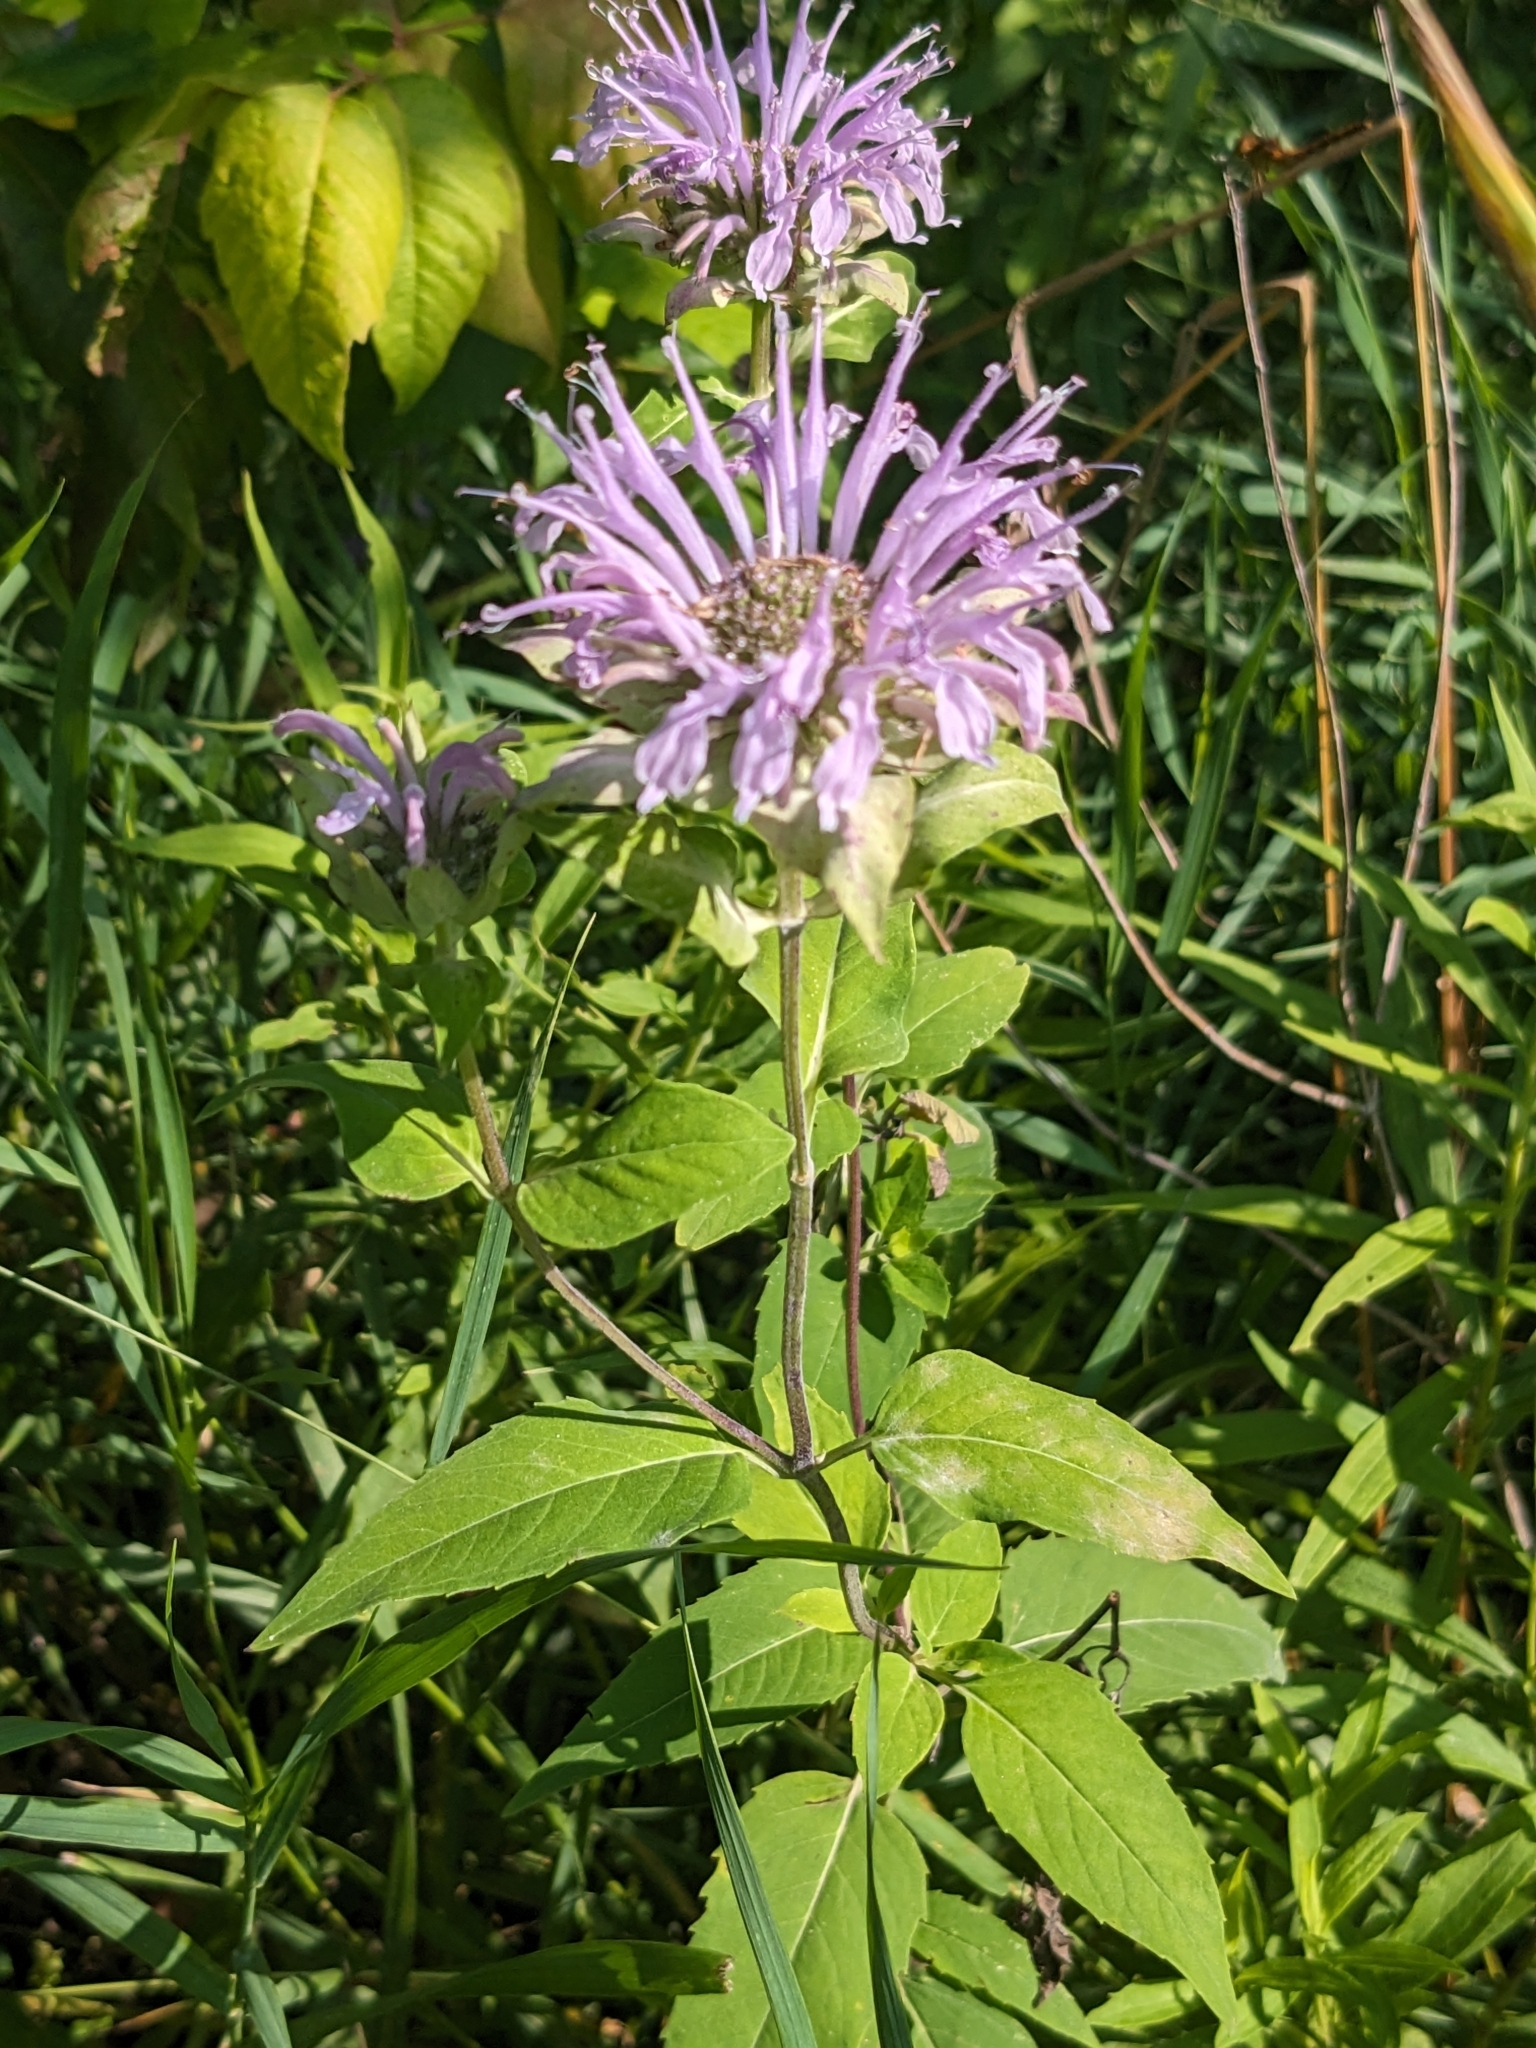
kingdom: Plantae
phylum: Tracheophyta
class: Magnoliopsida
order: Lamiales
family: Lamiaceae
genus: Monarda
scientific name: Monarda fistulosa
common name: Purple beebalm
